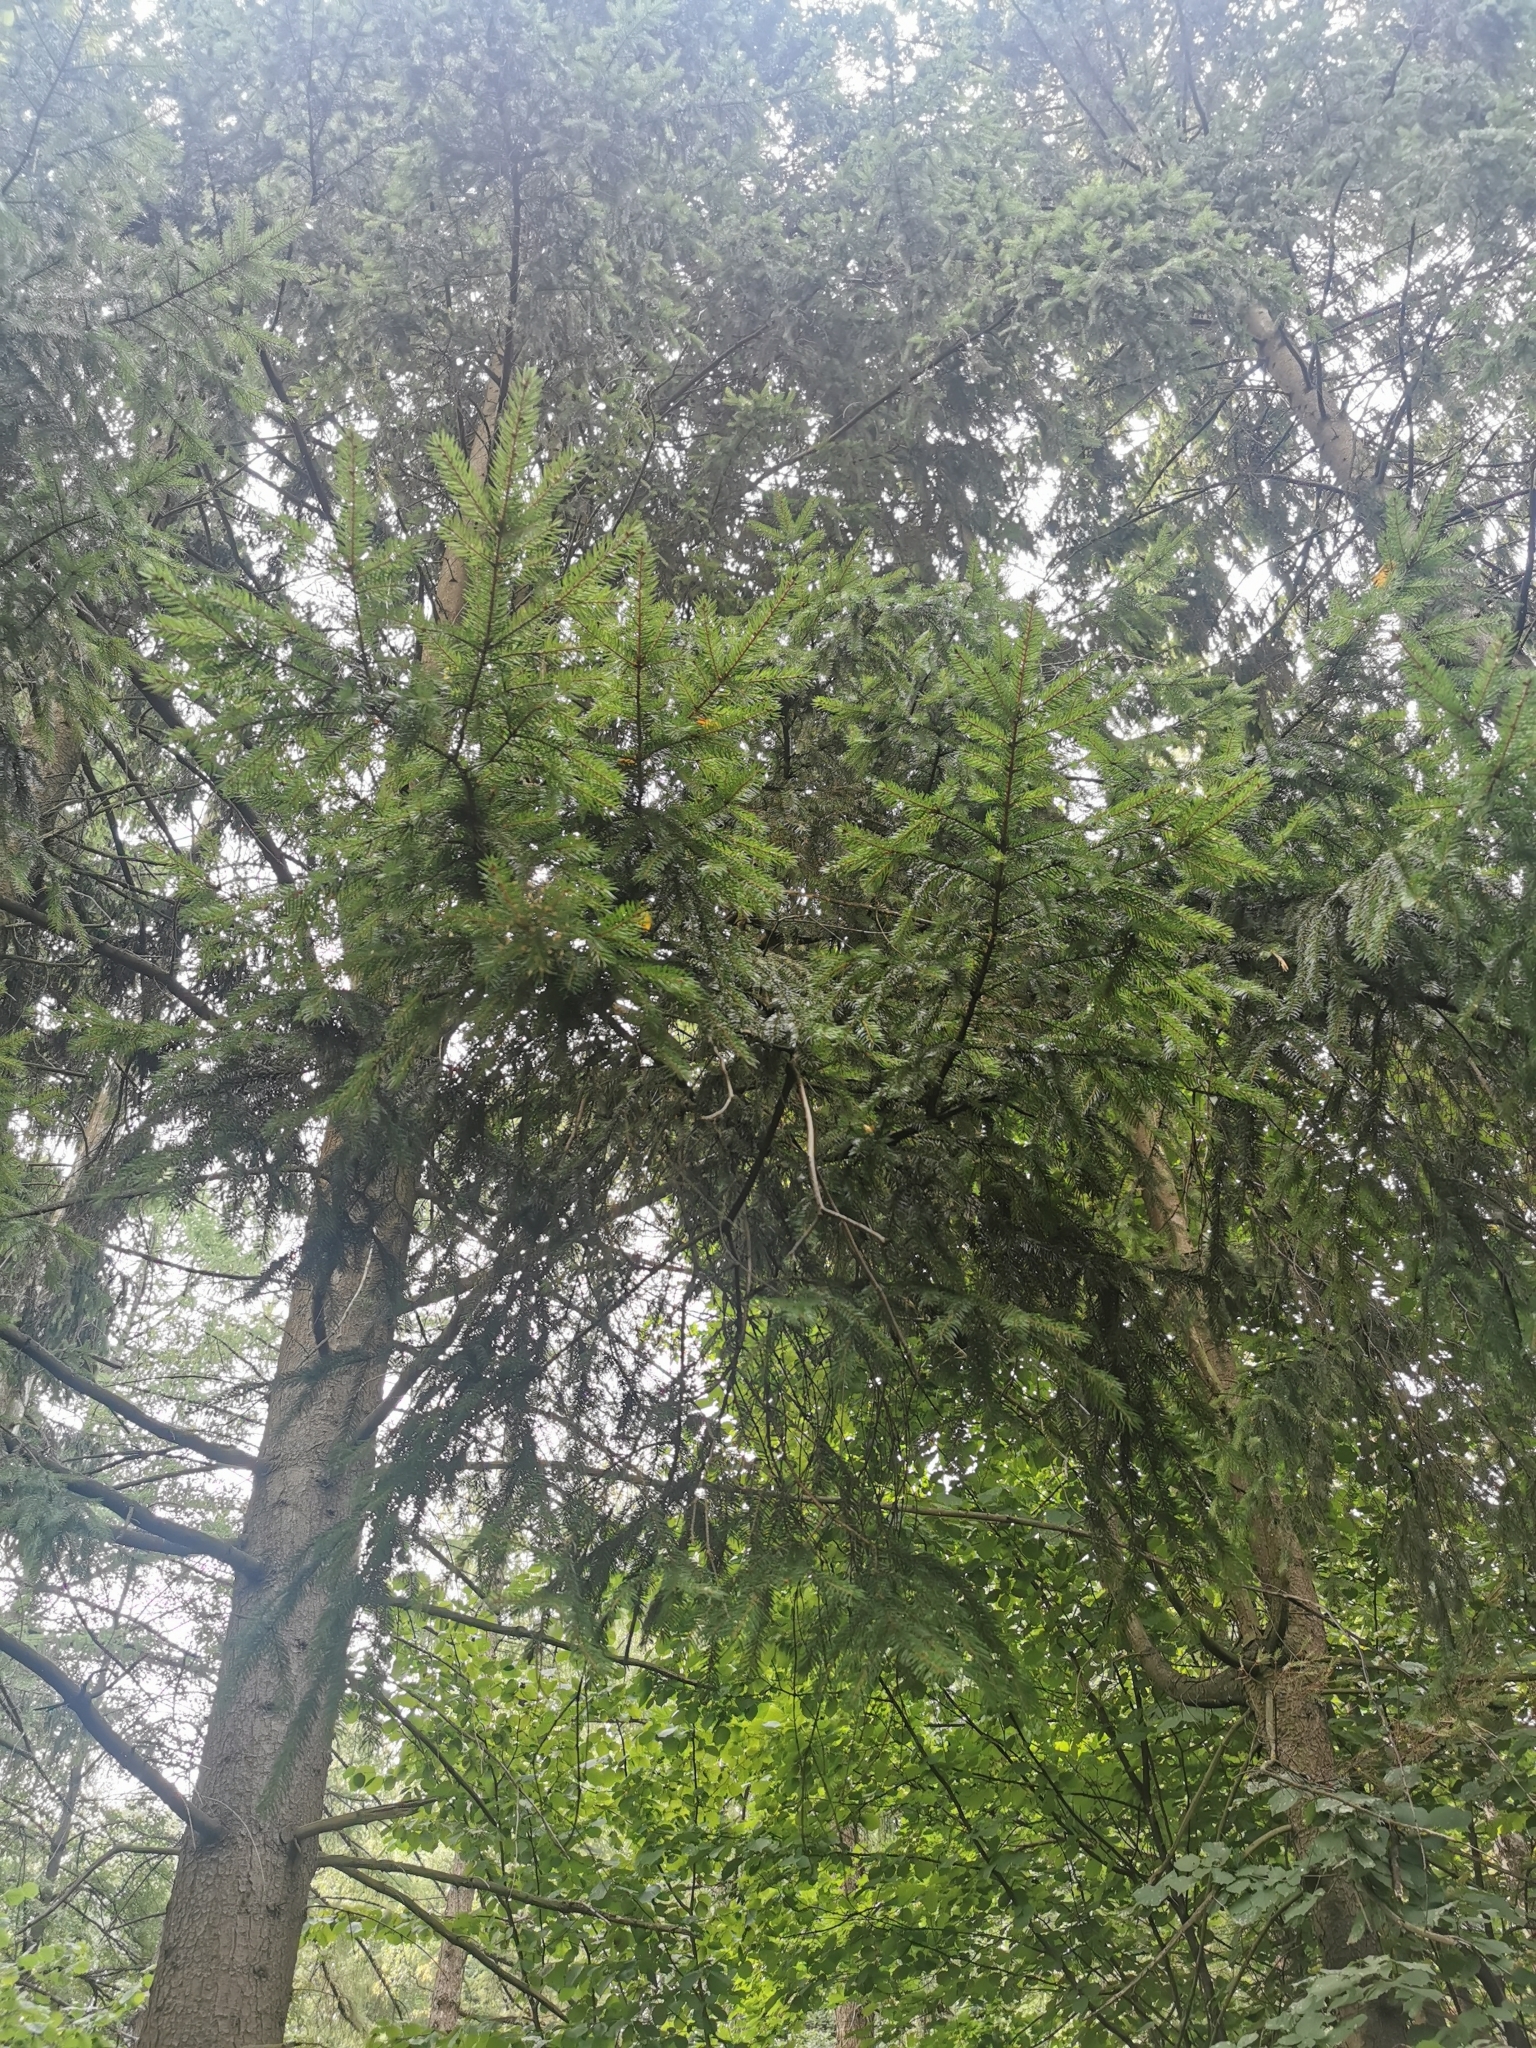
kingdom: Plantae
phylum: Tracheophyta
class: Pinopsida
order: Pinales
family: Pinaceae
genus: Picea
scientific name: Picea abies
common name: Norway spruce
